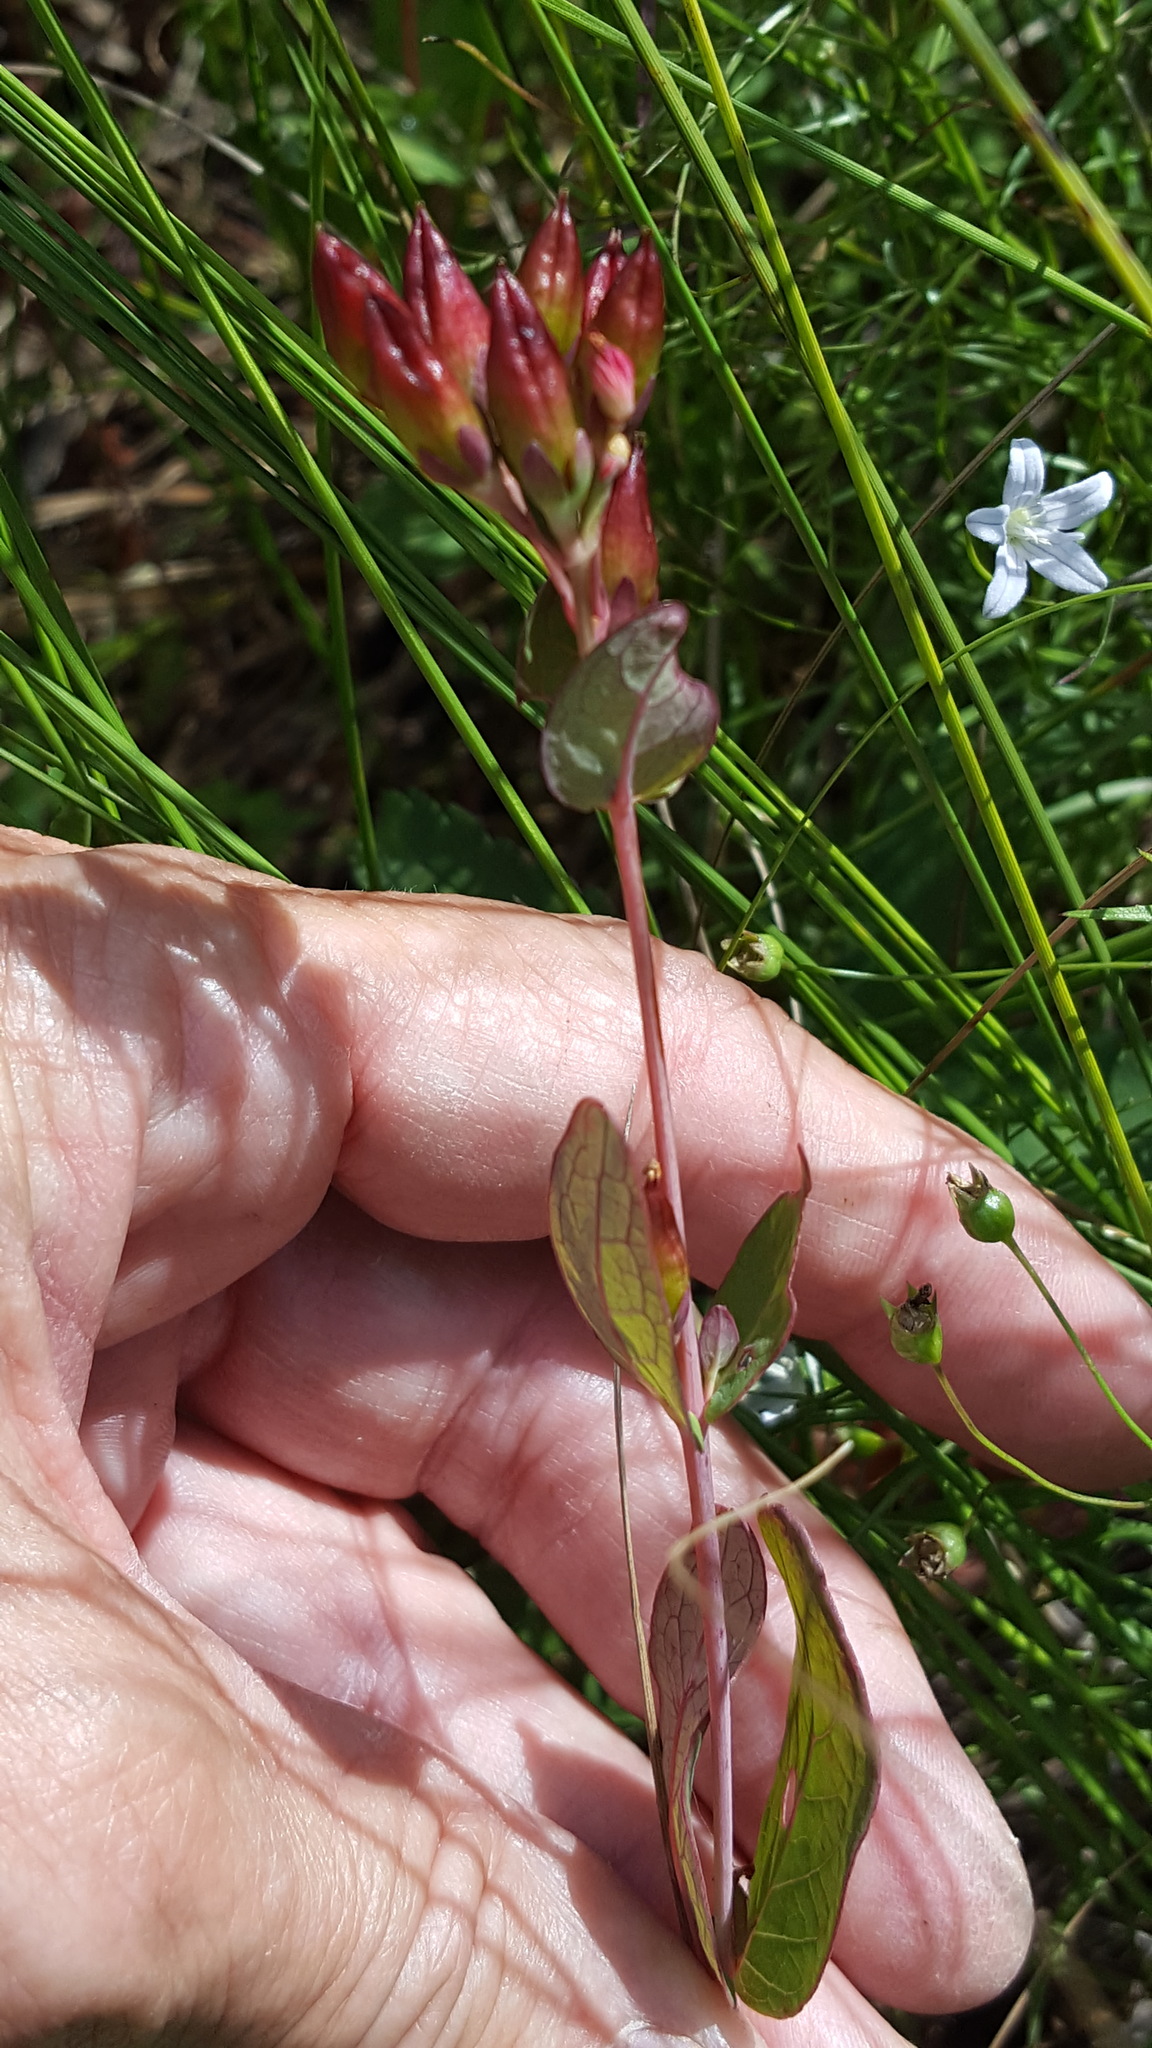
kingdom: Plantae
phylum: Tracheophyta
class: Magnoliopsida
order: Malpighiales
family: Hypericaceae
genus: Triadenum
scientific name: Triadenum fraseri
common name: Fraser's marsh st. johnswort
